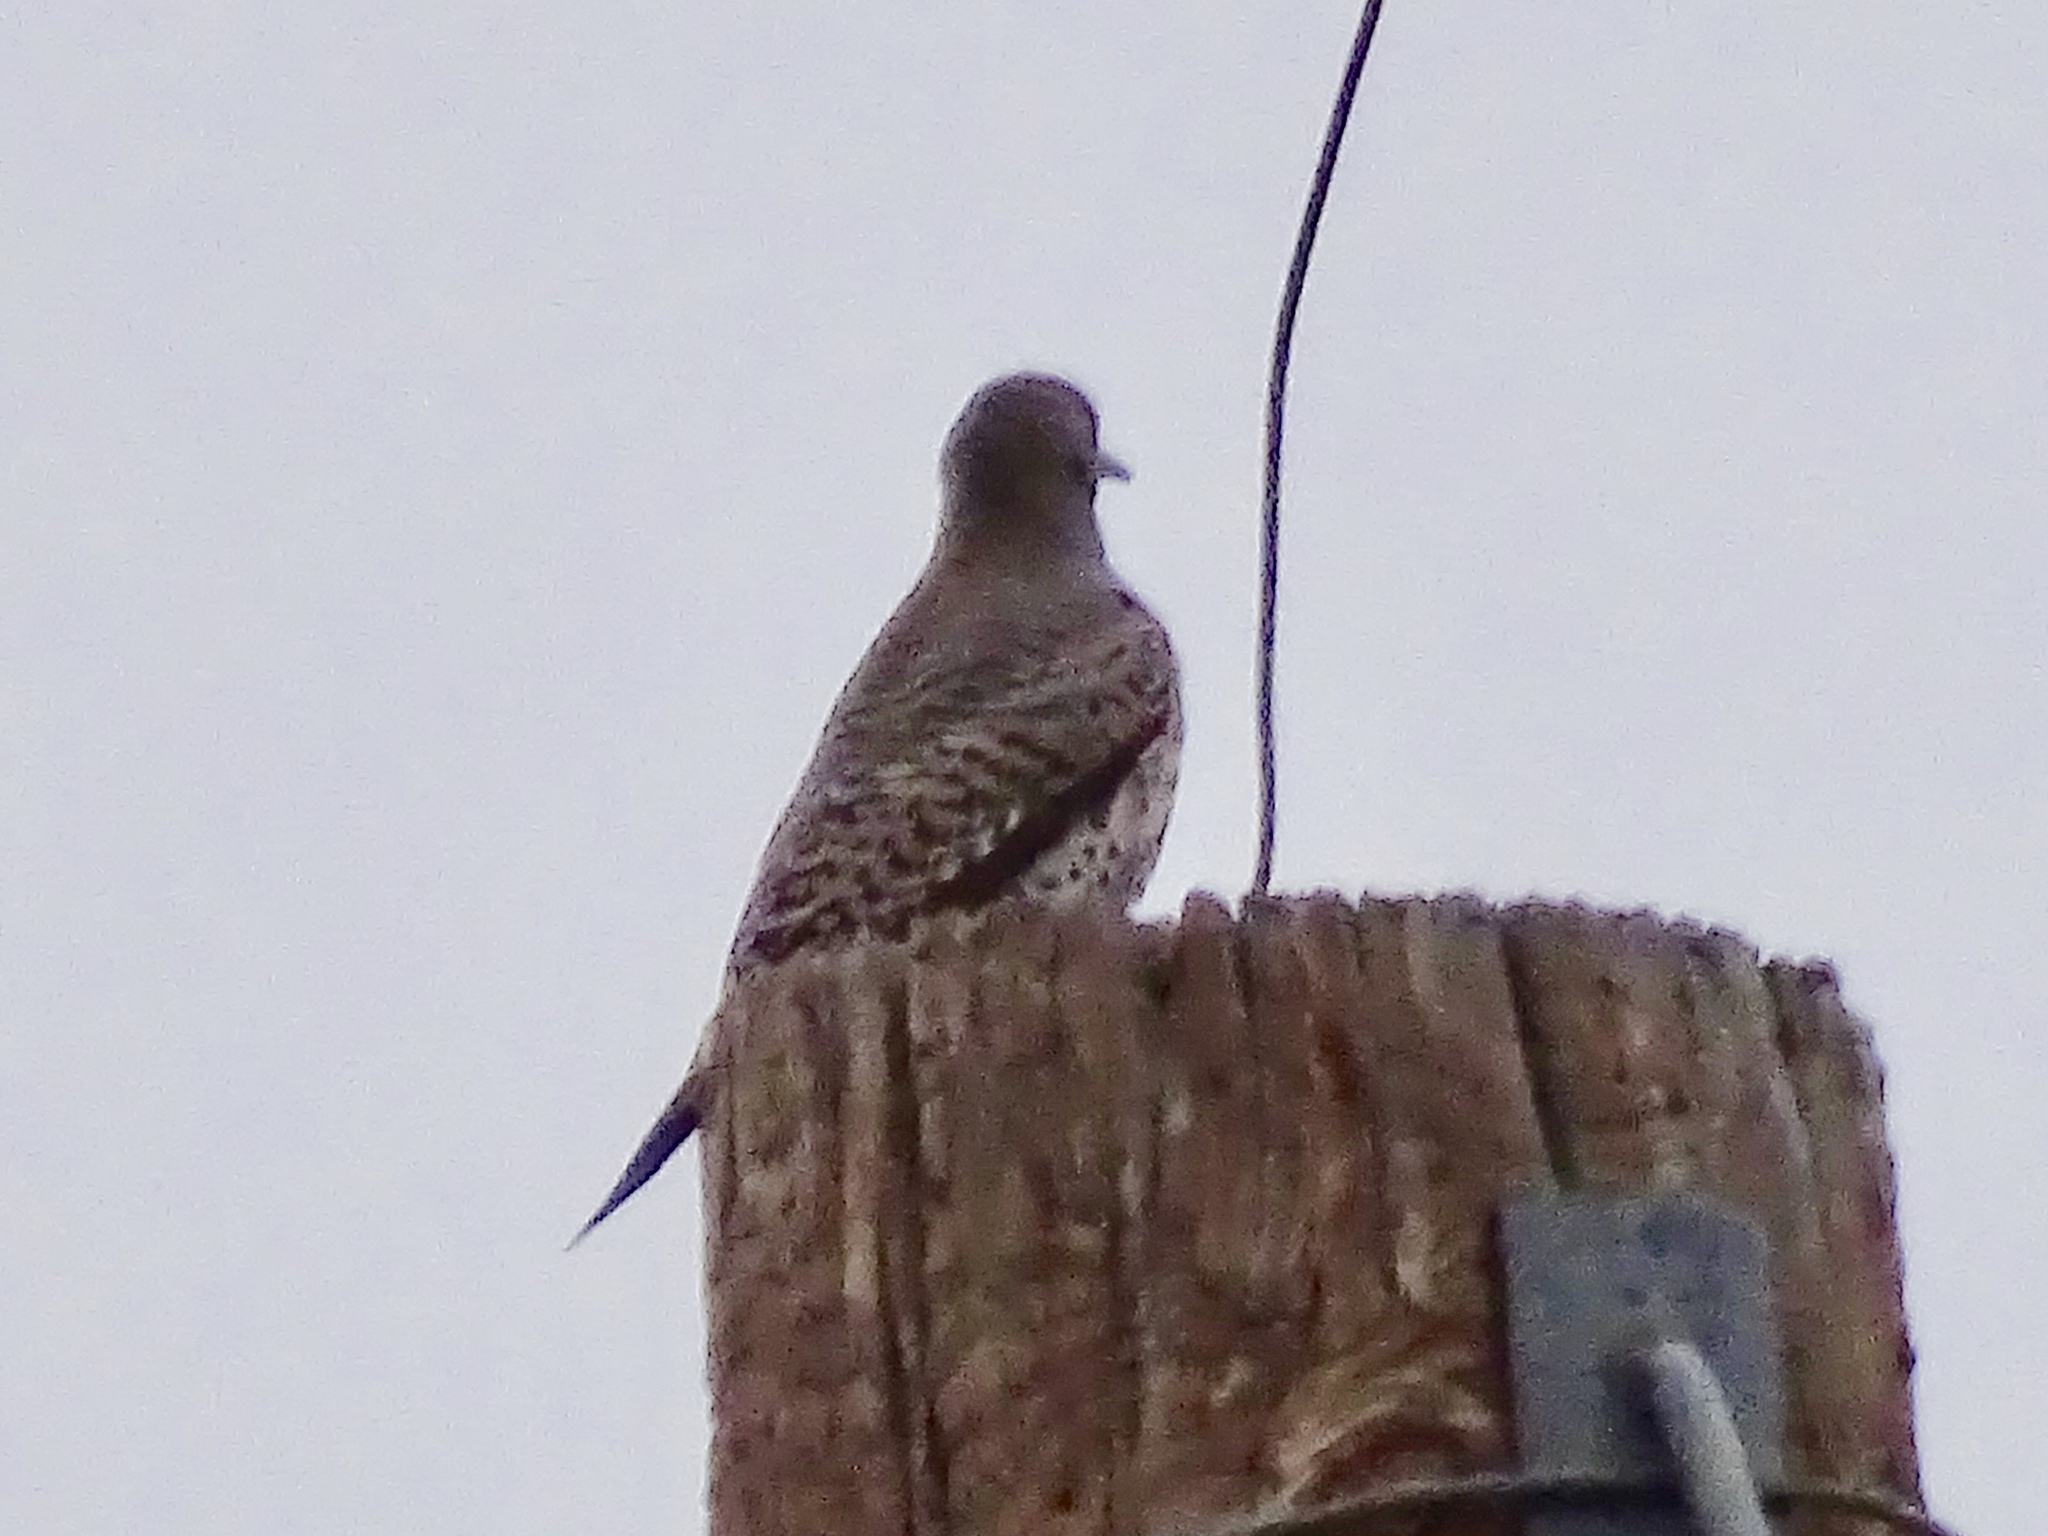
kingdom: Animalia
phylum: Chordata
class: Aves
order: Piciformes
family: Picidae
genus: Colaptes
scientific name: Colaptes auratus
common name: Northern flicker
